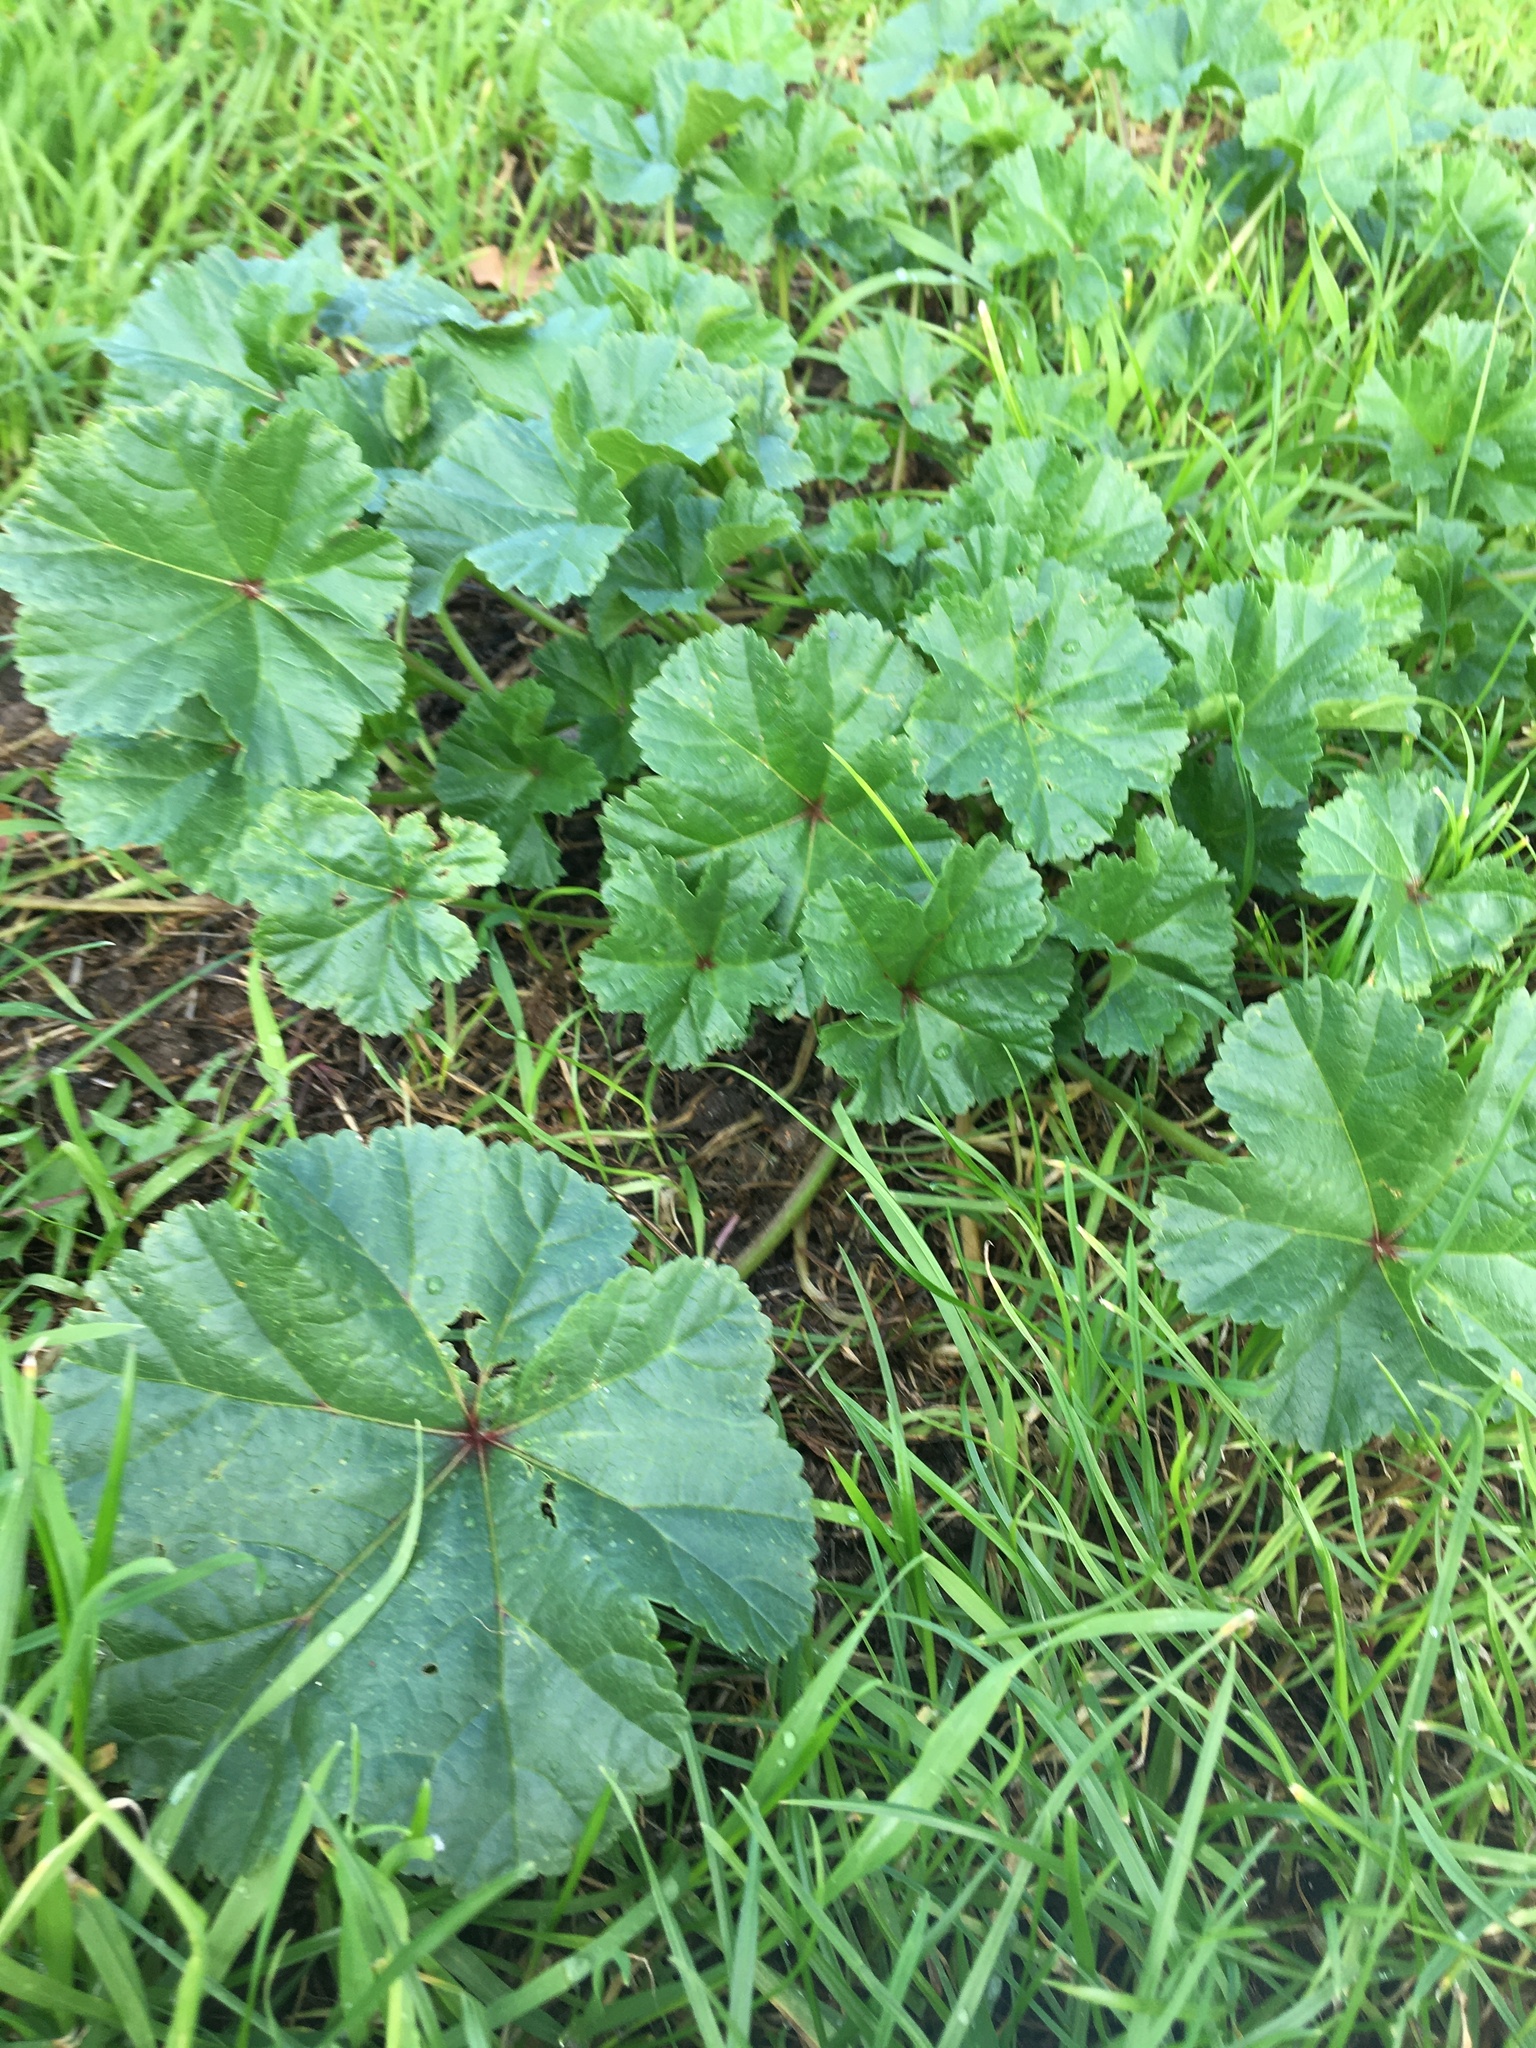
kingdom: Plantae
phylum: Tracheophyta
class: Magnoliopsida
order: Malvales
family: Malvaceae
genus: Malva
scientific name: Malva sylvestris
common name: Common mallow
